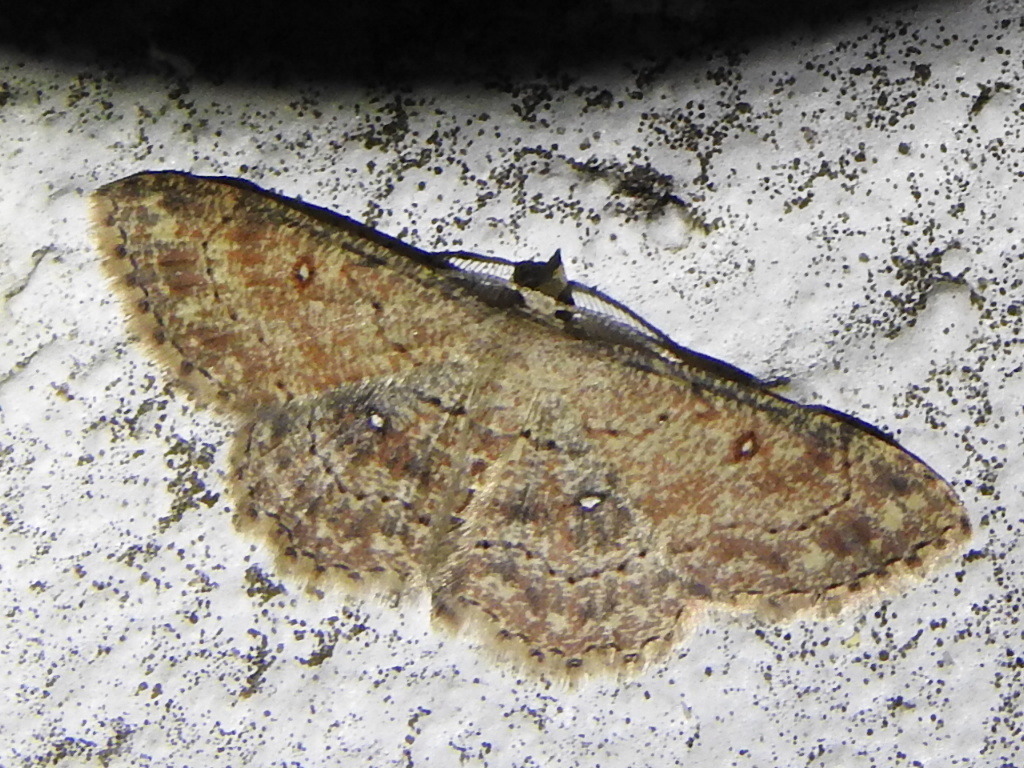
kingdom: Animalia
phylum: Arthropoda
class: Insecta
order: Lepidoptera
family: Geometridae
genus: Cyclophora
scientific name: Cyclophora nanaria
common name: Cankerworm
